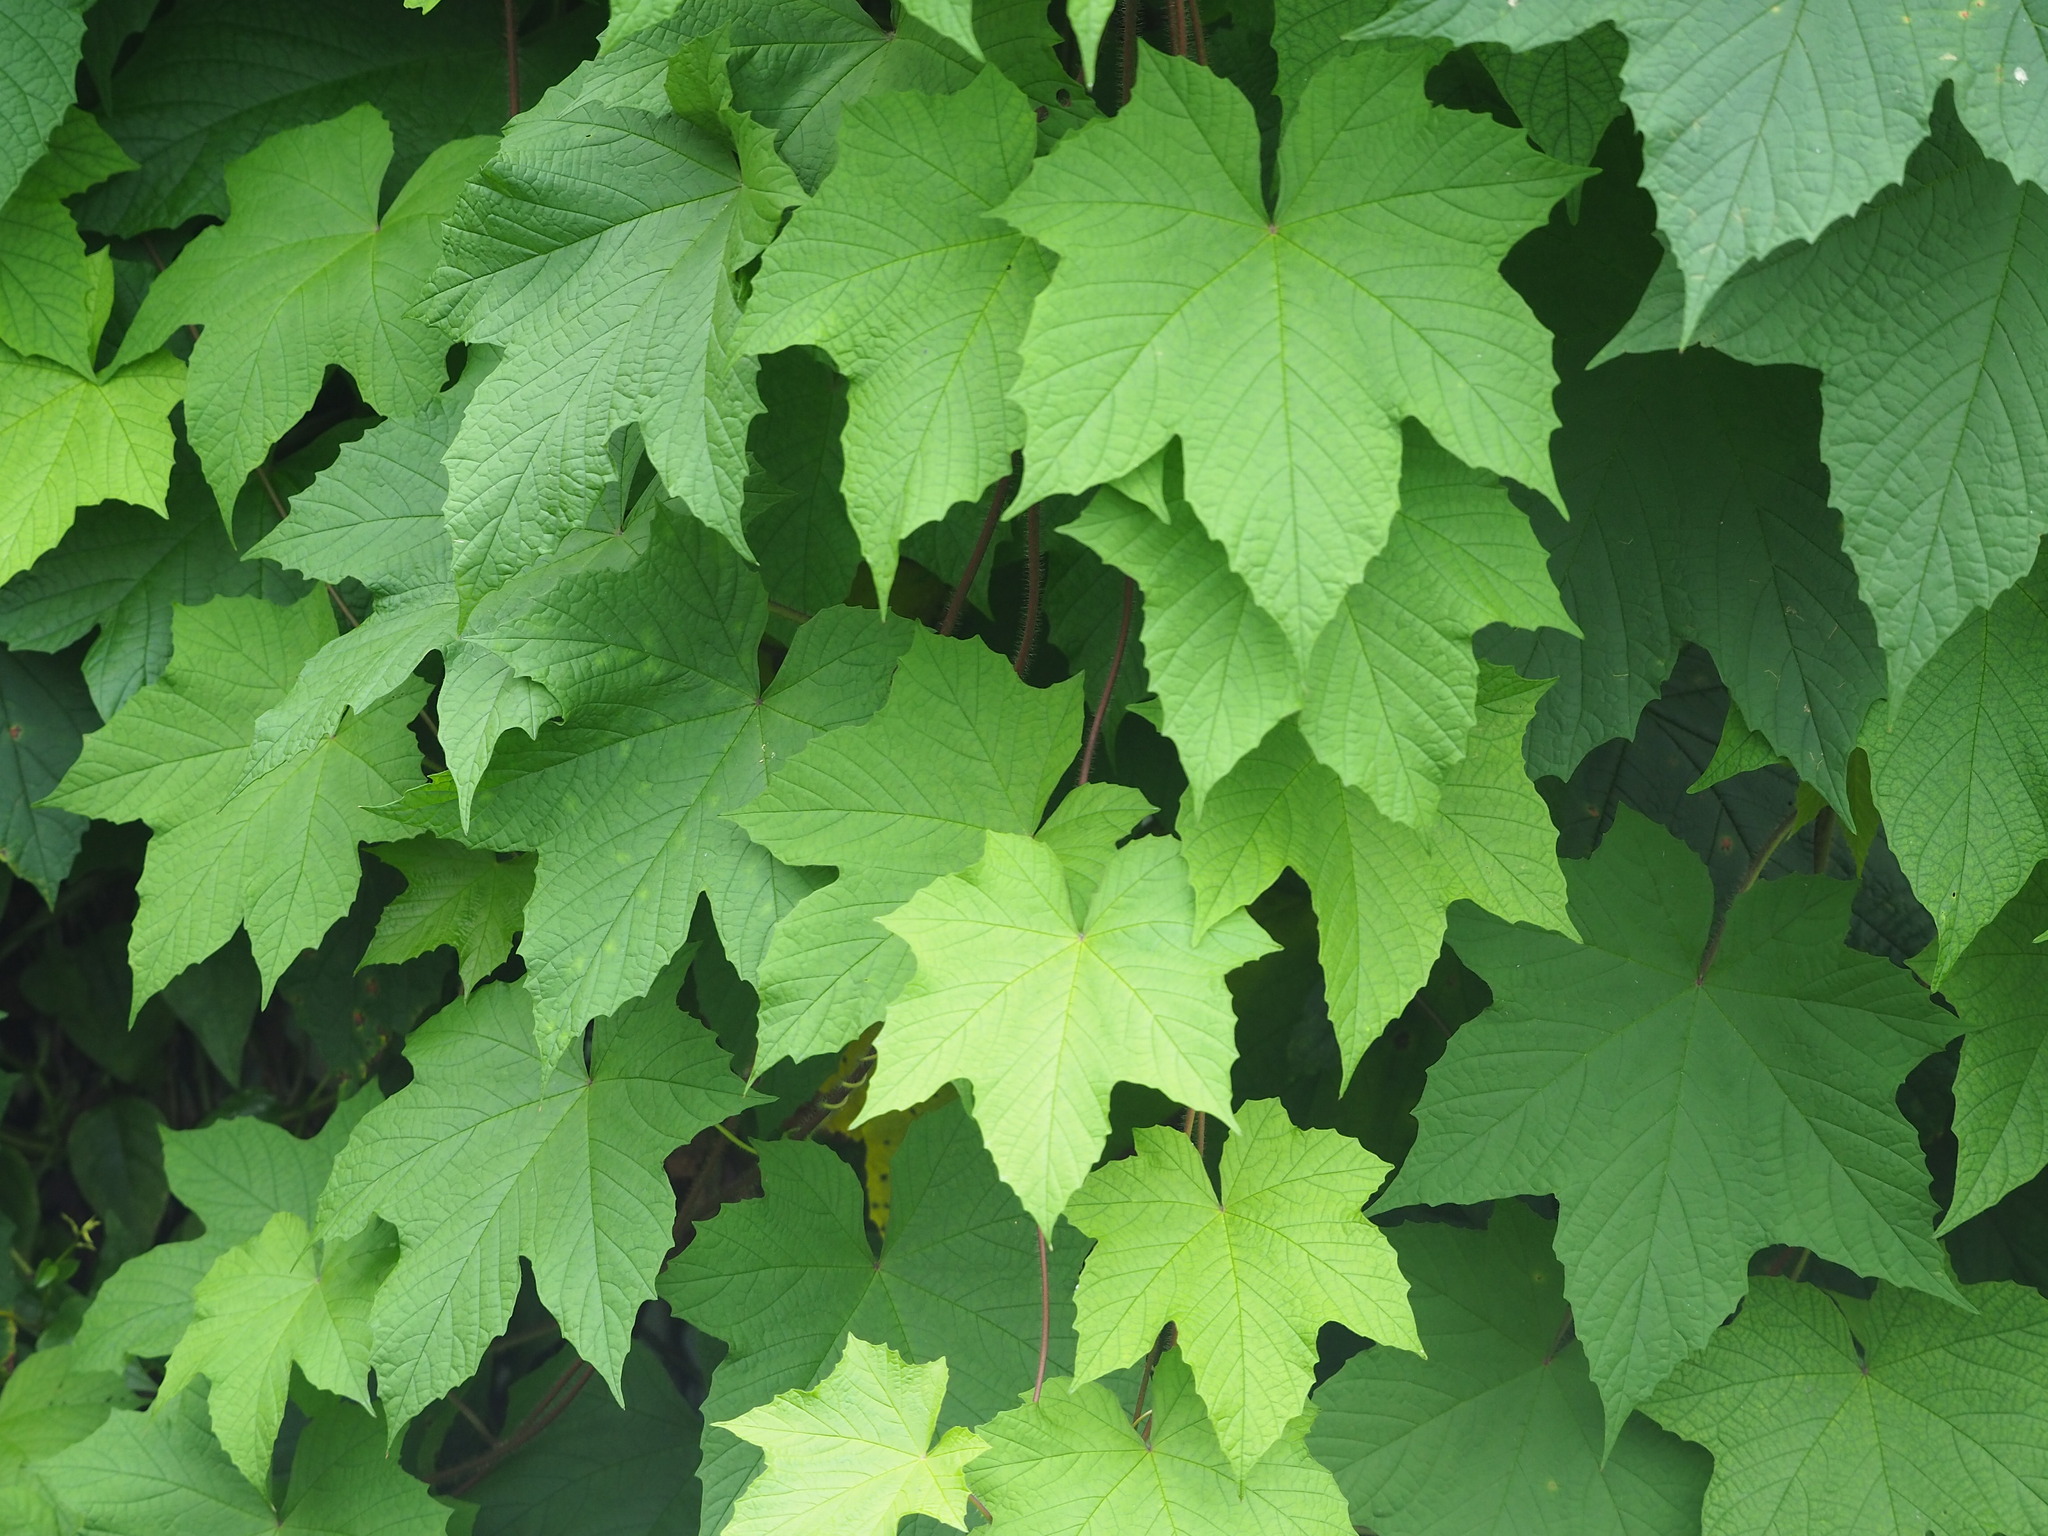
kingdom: Plantae
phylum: Tracheophyta
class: Magnoliopsida
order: Solanales
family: Convolvulaceae
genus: Distimake
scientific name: Distimake
